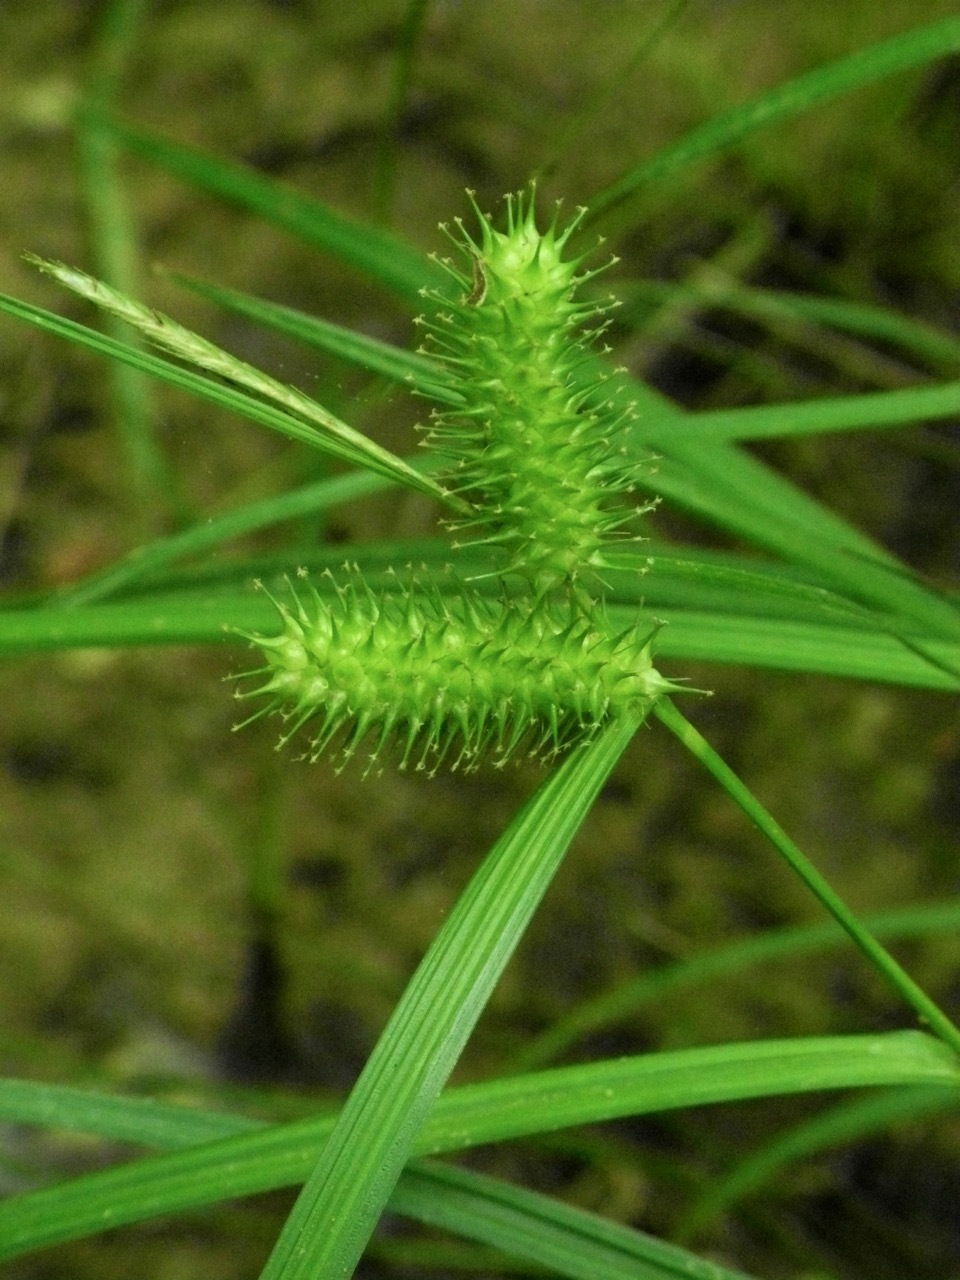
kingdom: Plantae
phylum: Tracheophyta
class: Liliopsida
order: Poales
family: Cyperaceae
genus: Carex
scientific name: Carex lurida
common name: Sallow sedge
